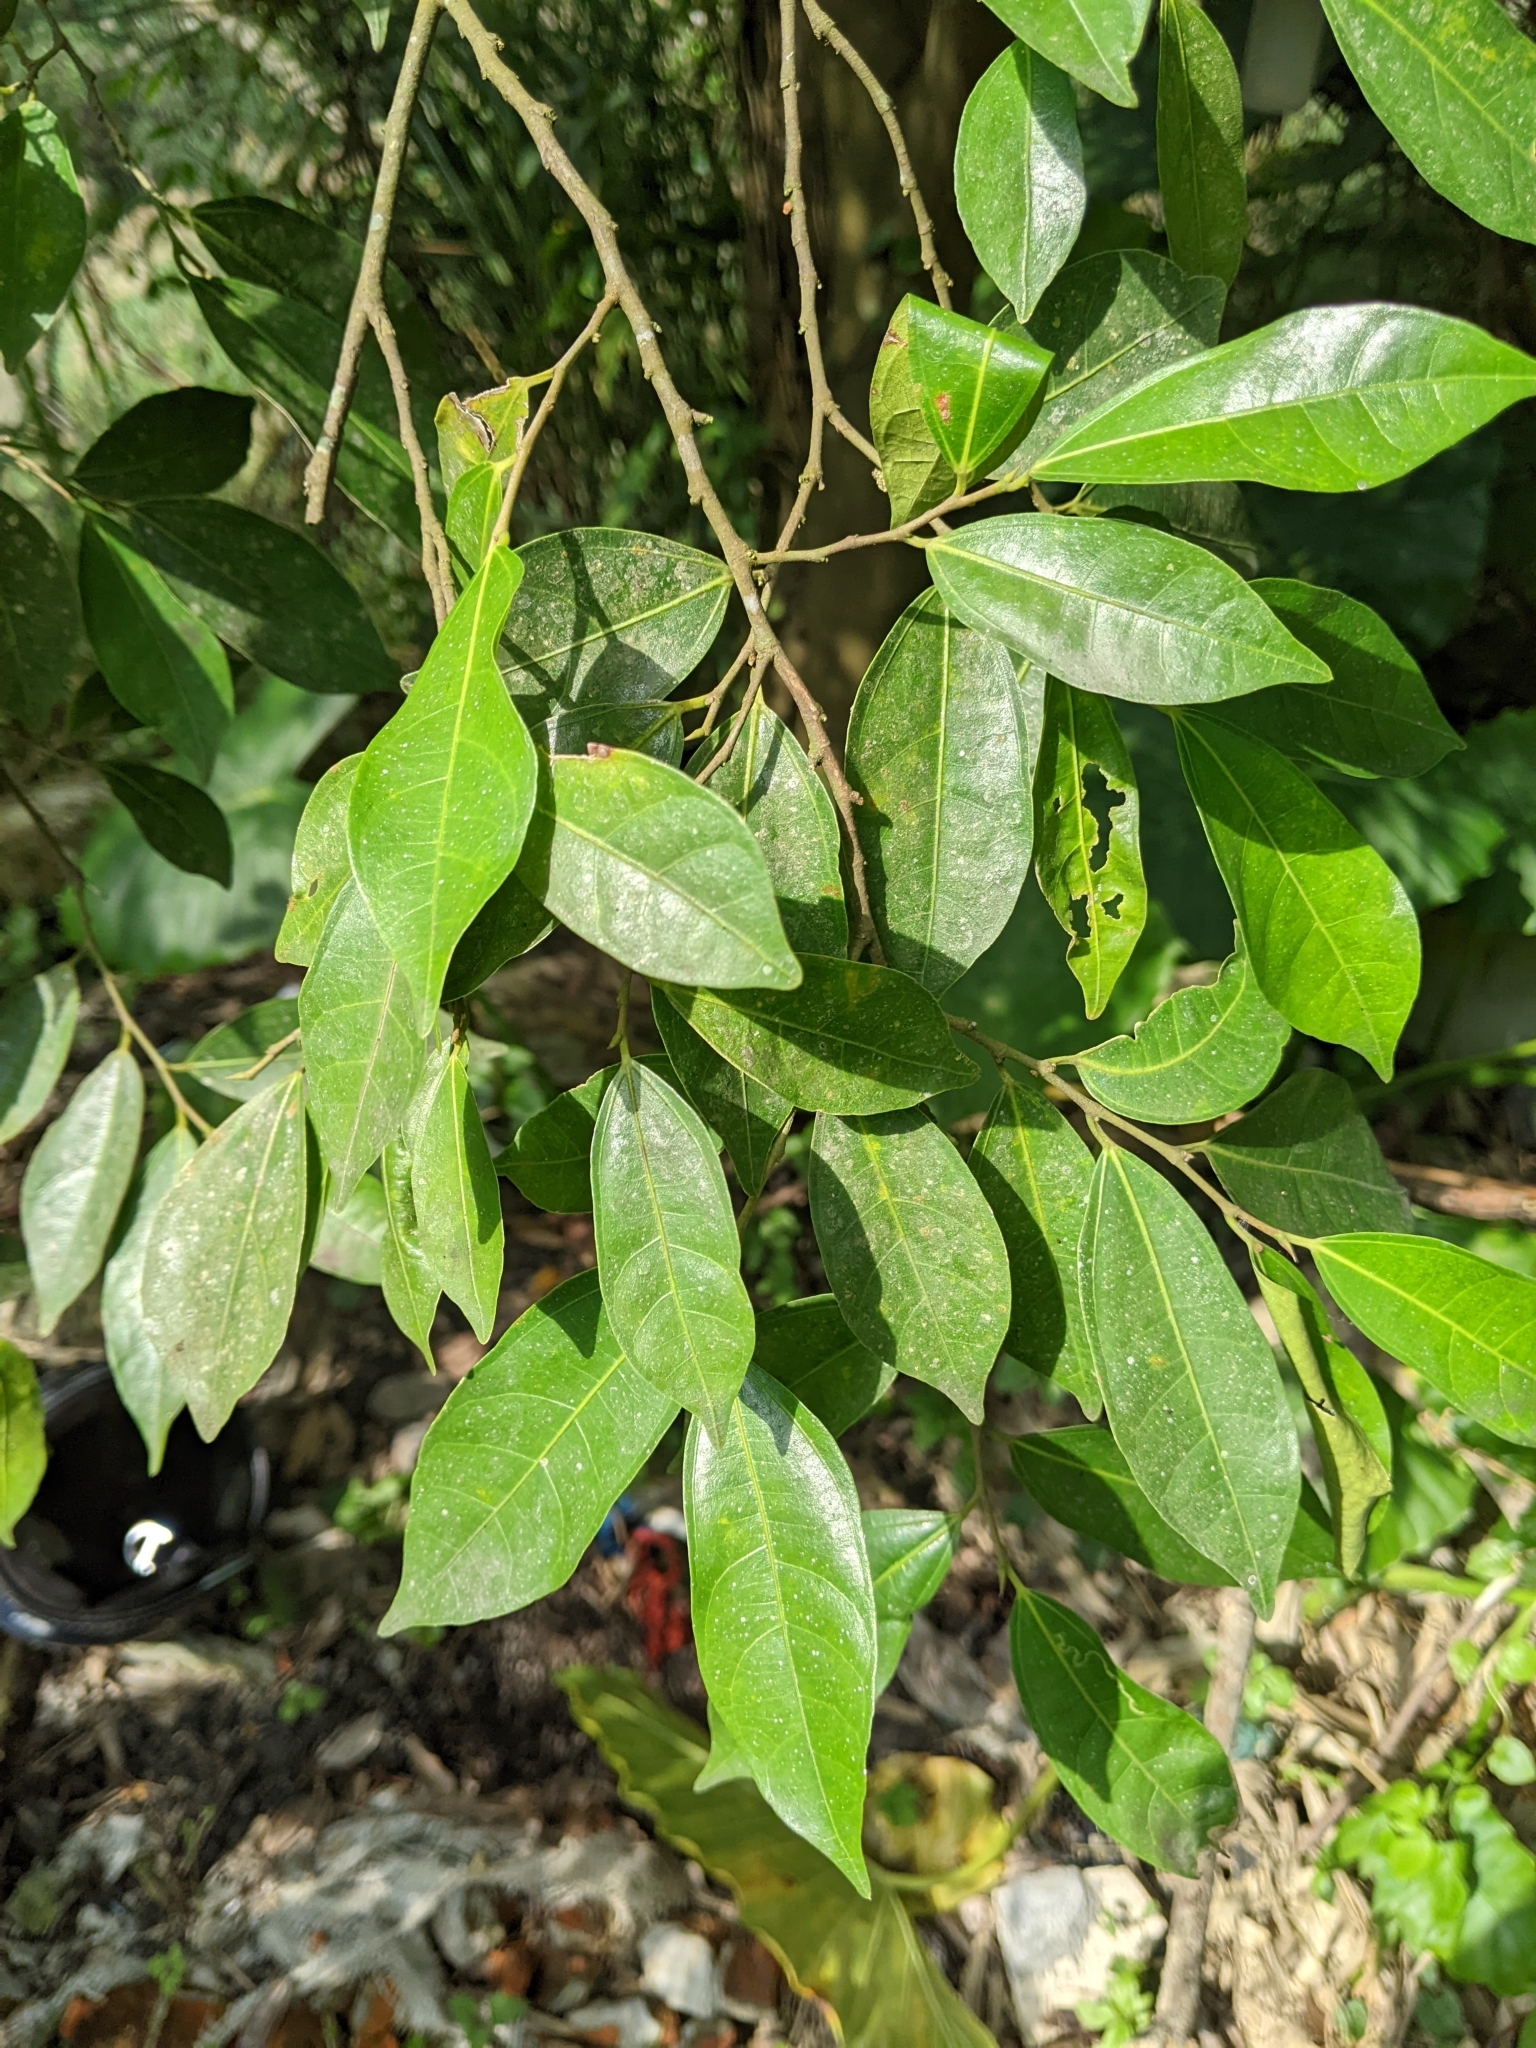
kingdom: Plantae
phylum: Tracheophyta
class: Magnoliopsida
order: Rosales
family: Moraceae
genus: Ficus
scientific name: Ficus ampelos
